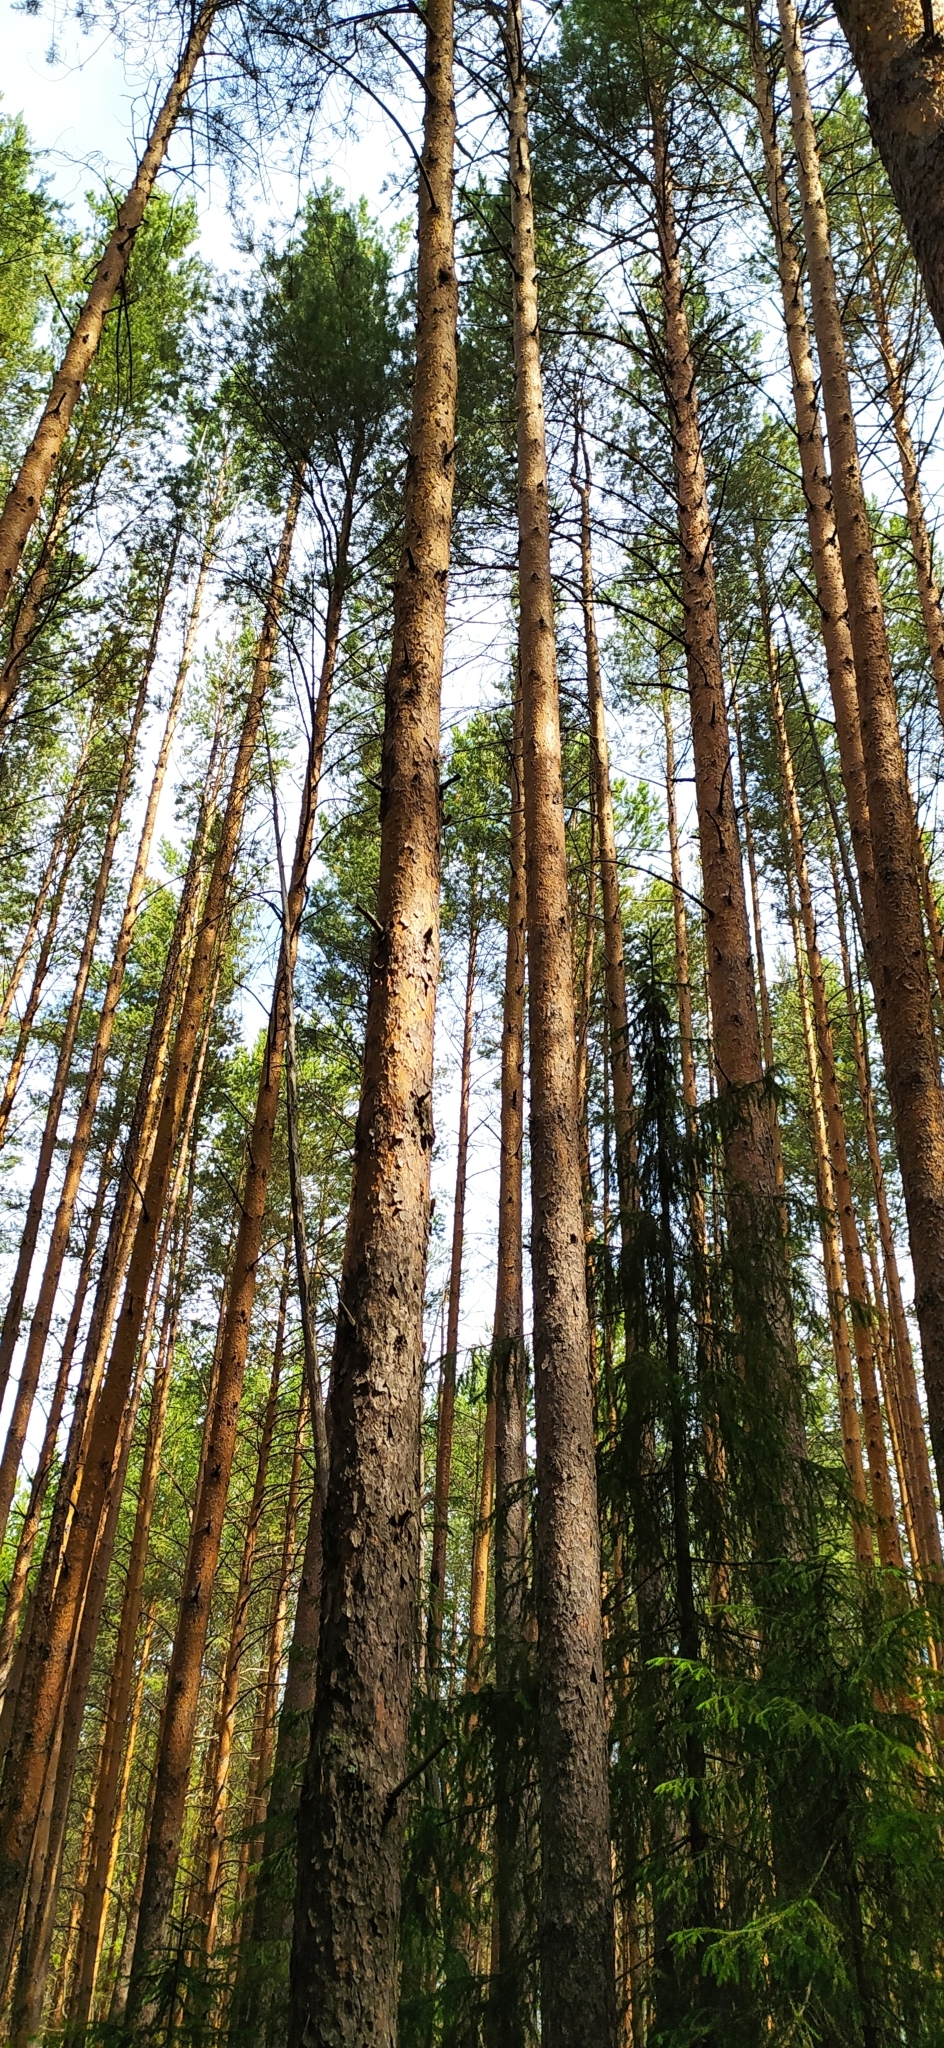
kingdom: Plantae
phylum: Tracheophyta
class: Pinopsida
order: Pinales
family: Pinaceae
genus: Pinus
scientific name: Pinus sylvestris
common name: Scots pine
